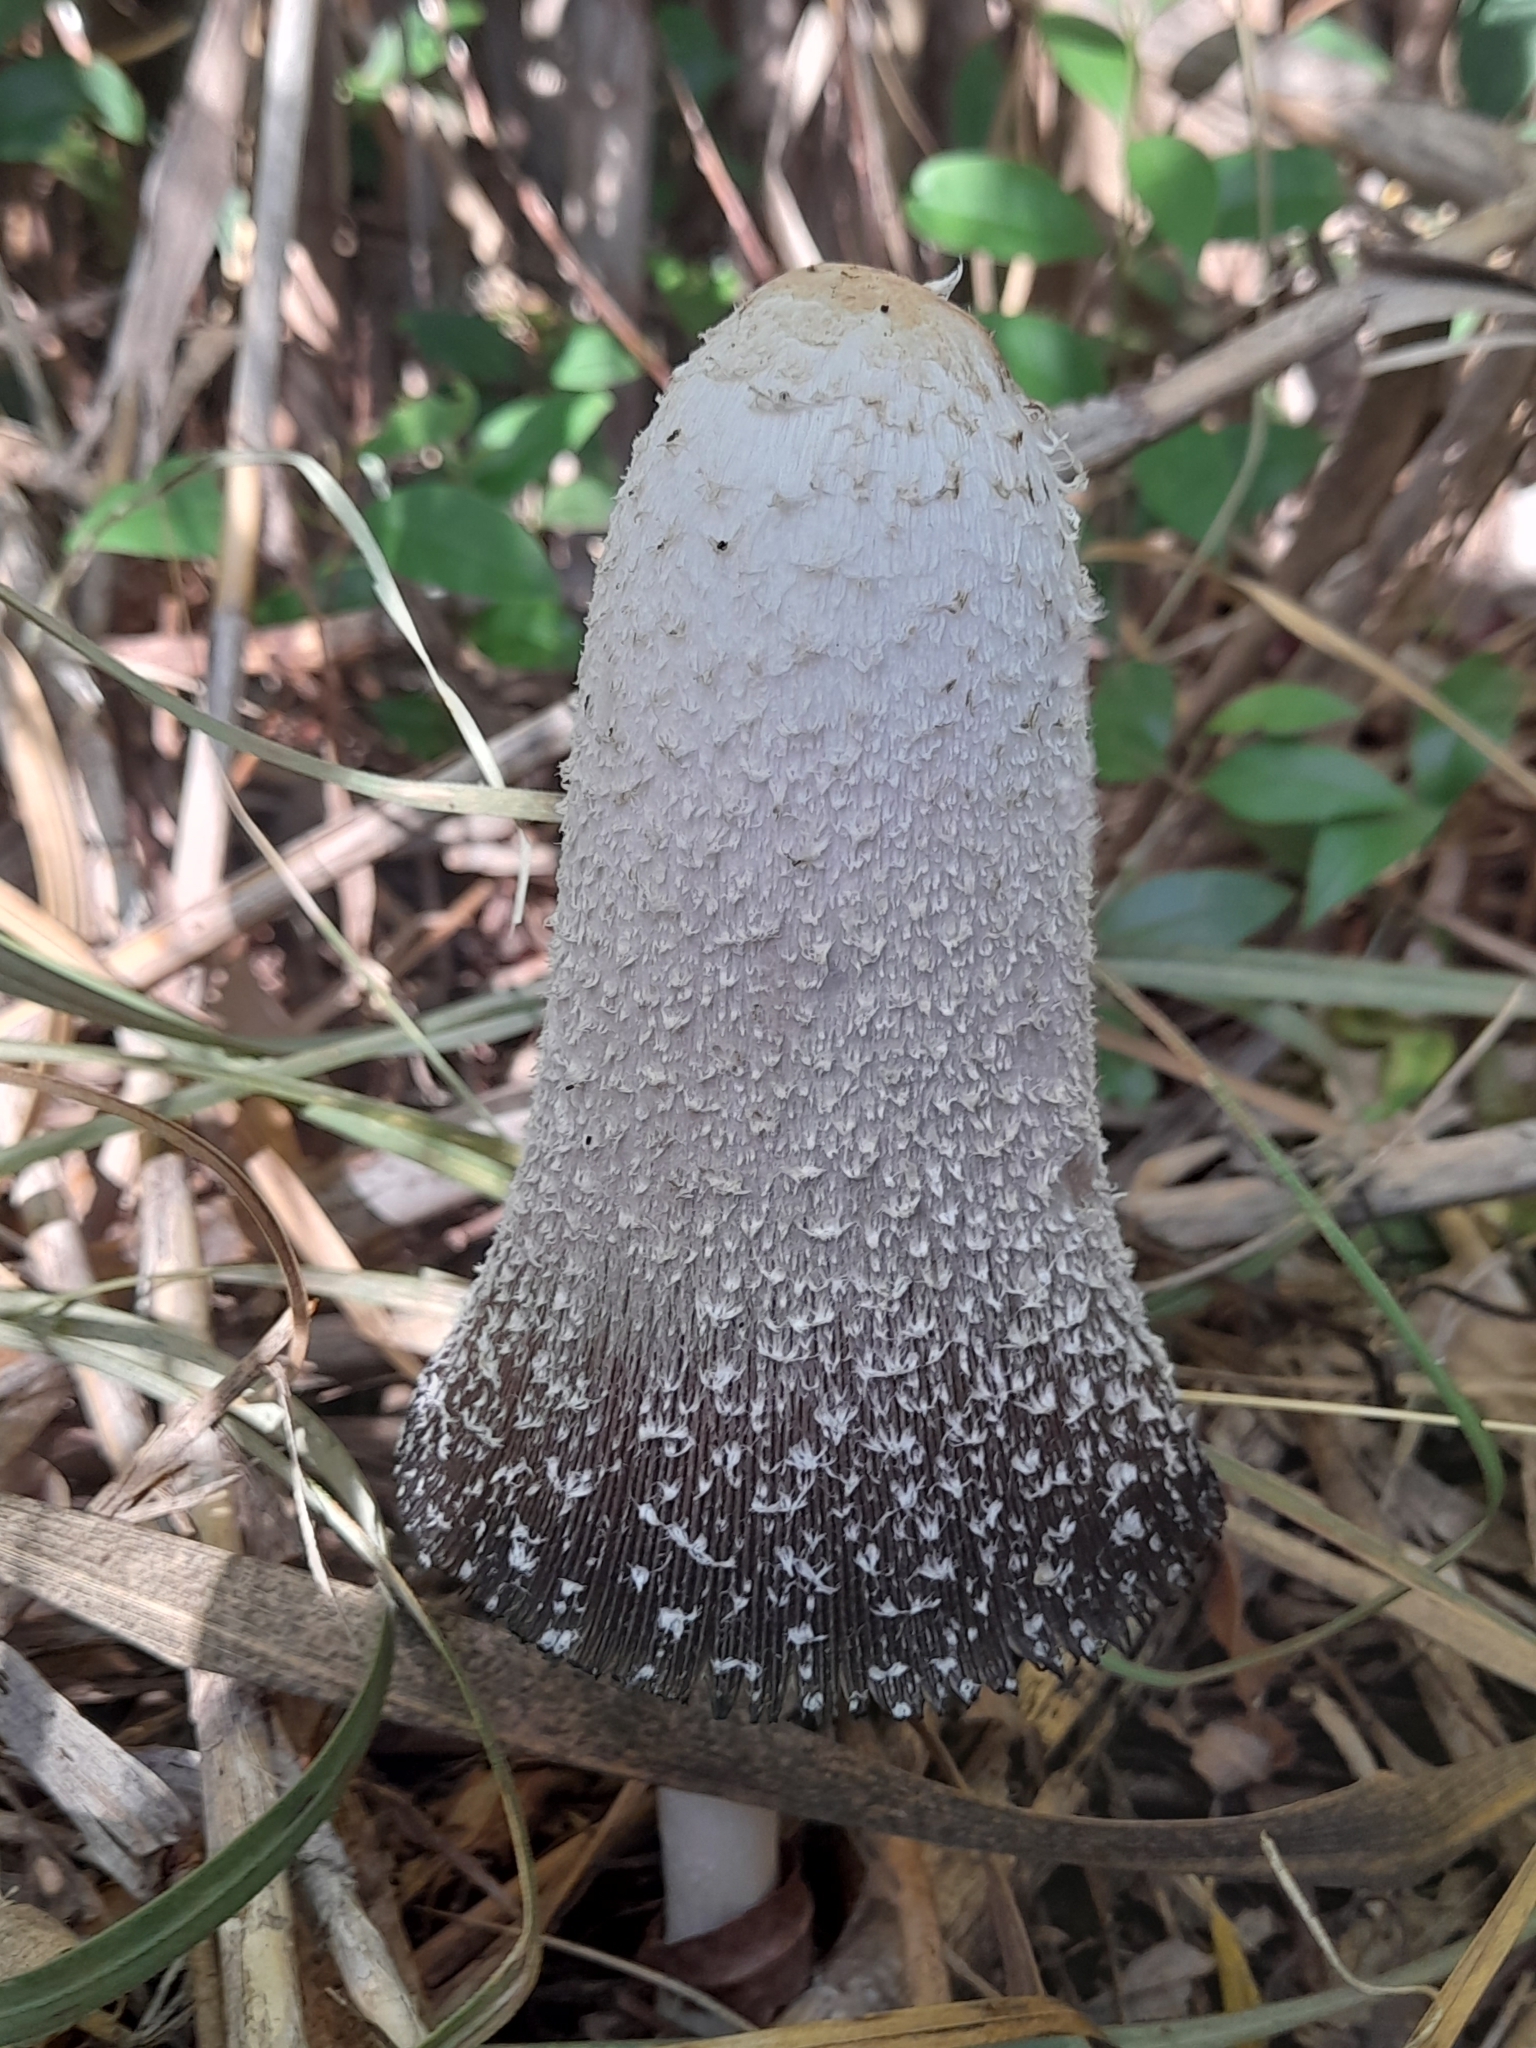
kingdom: Fungi
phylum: Basidiomycota
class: Agaricomycetes
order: Agaricales
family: Agaricaceae
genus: Coprinus
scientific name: Coprinus comatus
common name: Lawyer's wig
